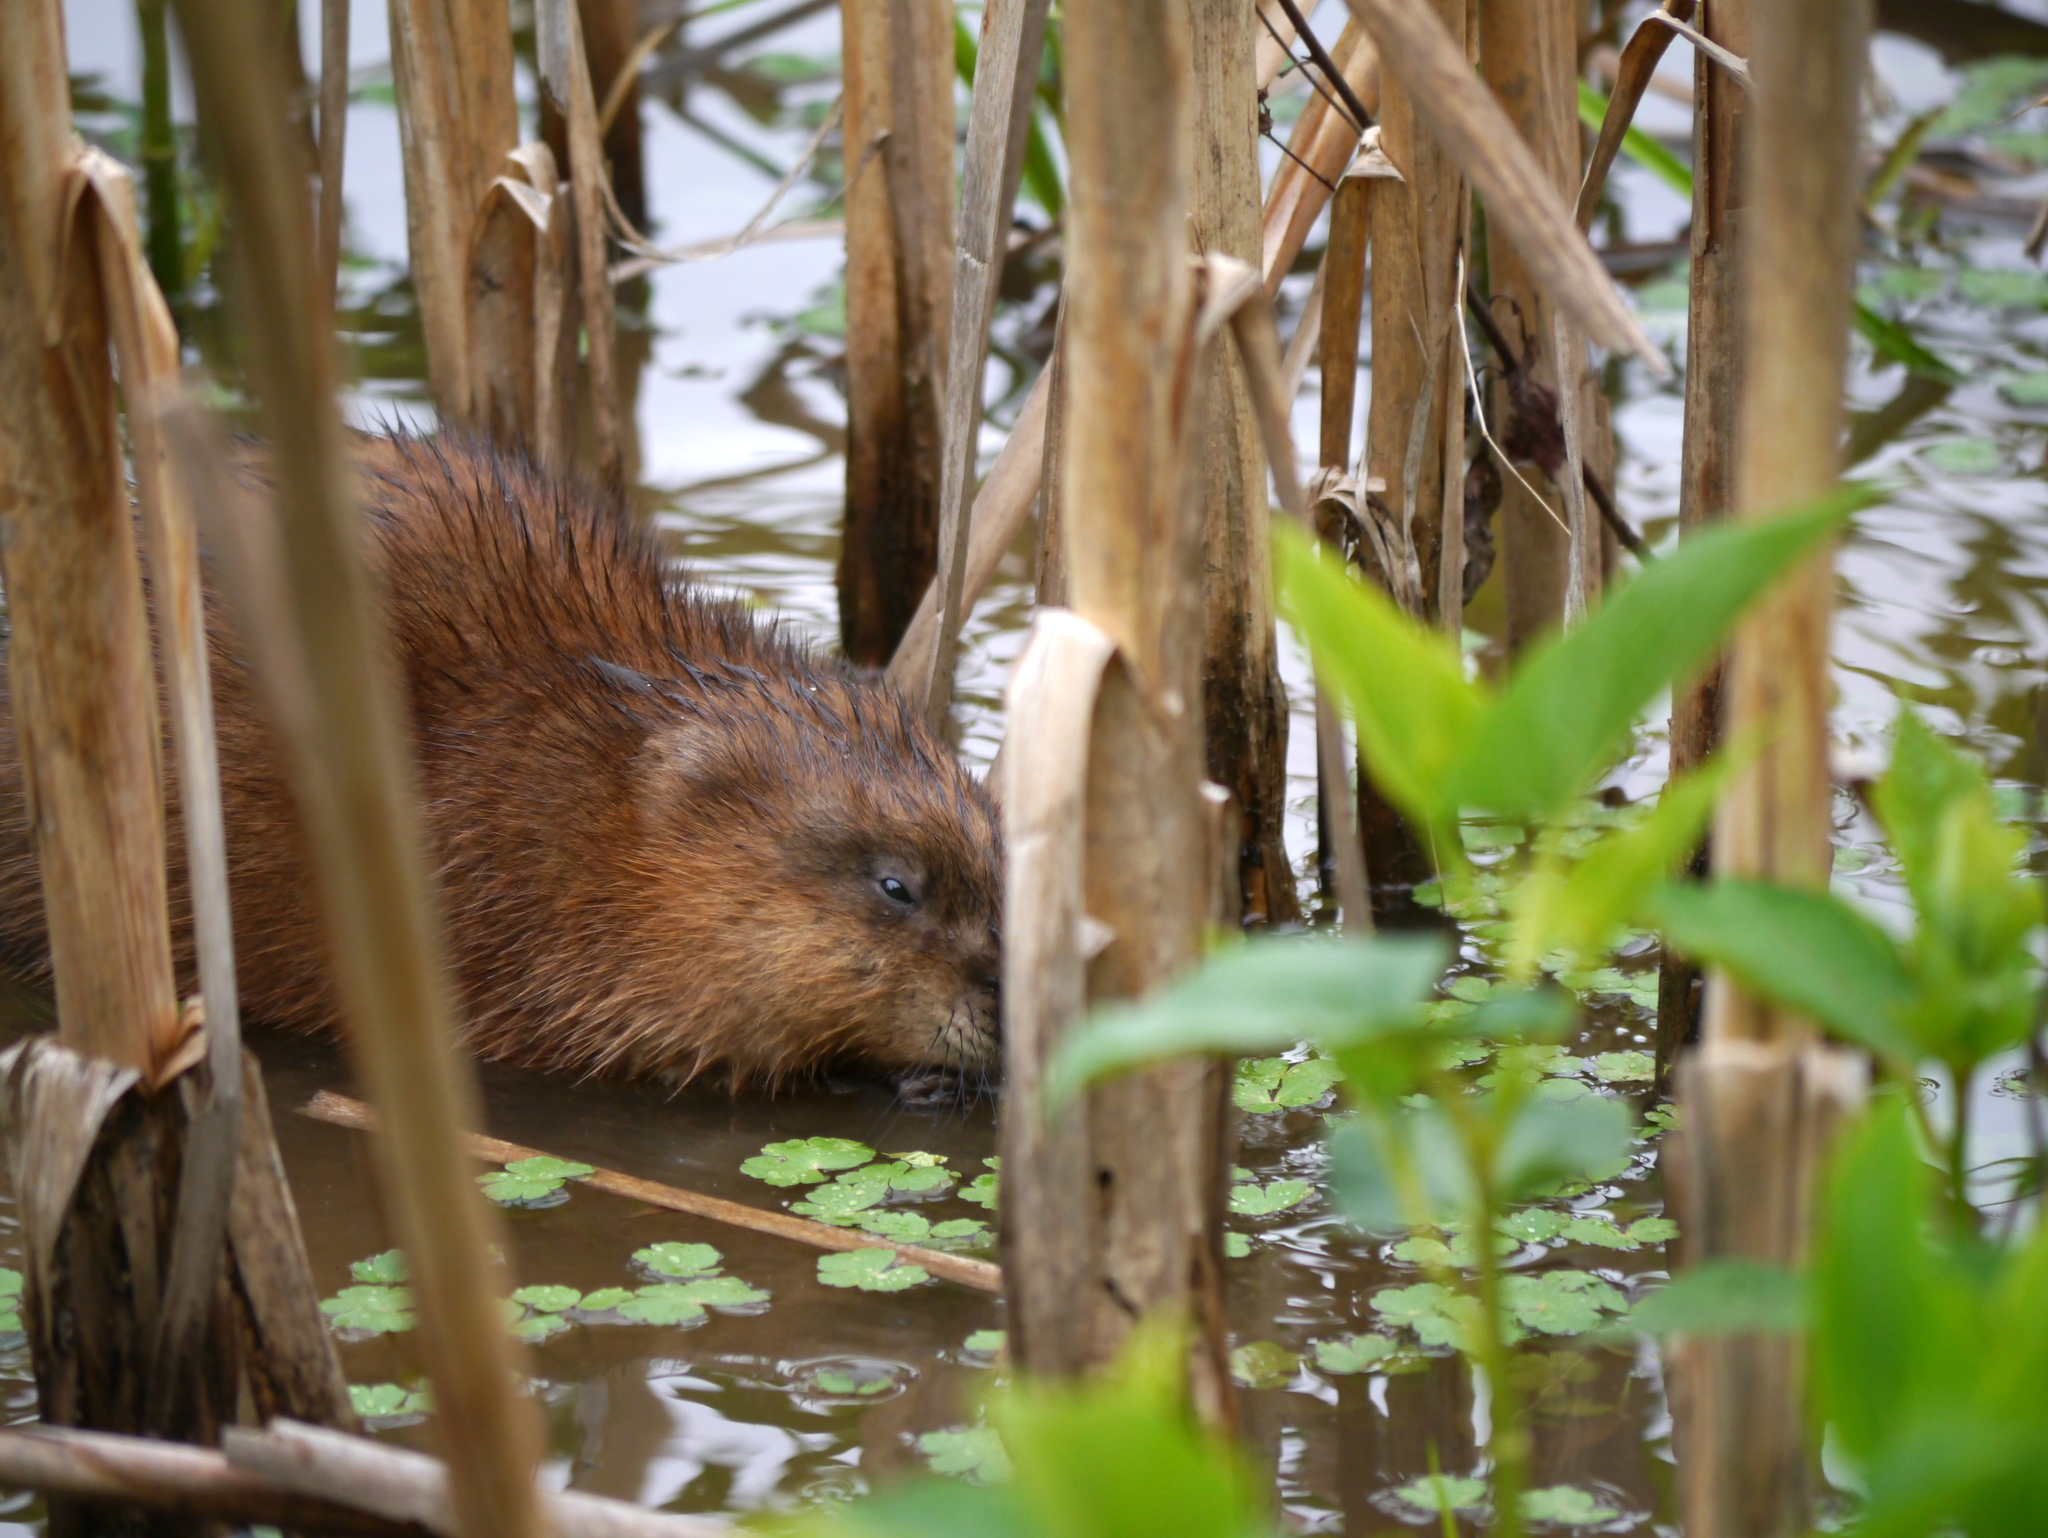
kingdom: Animalia
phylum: Chordata
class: Mammalia
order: Rodentia
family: Cricetidae
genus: Ondatra
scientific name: Ondatra zibethicus
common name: Muskrat
